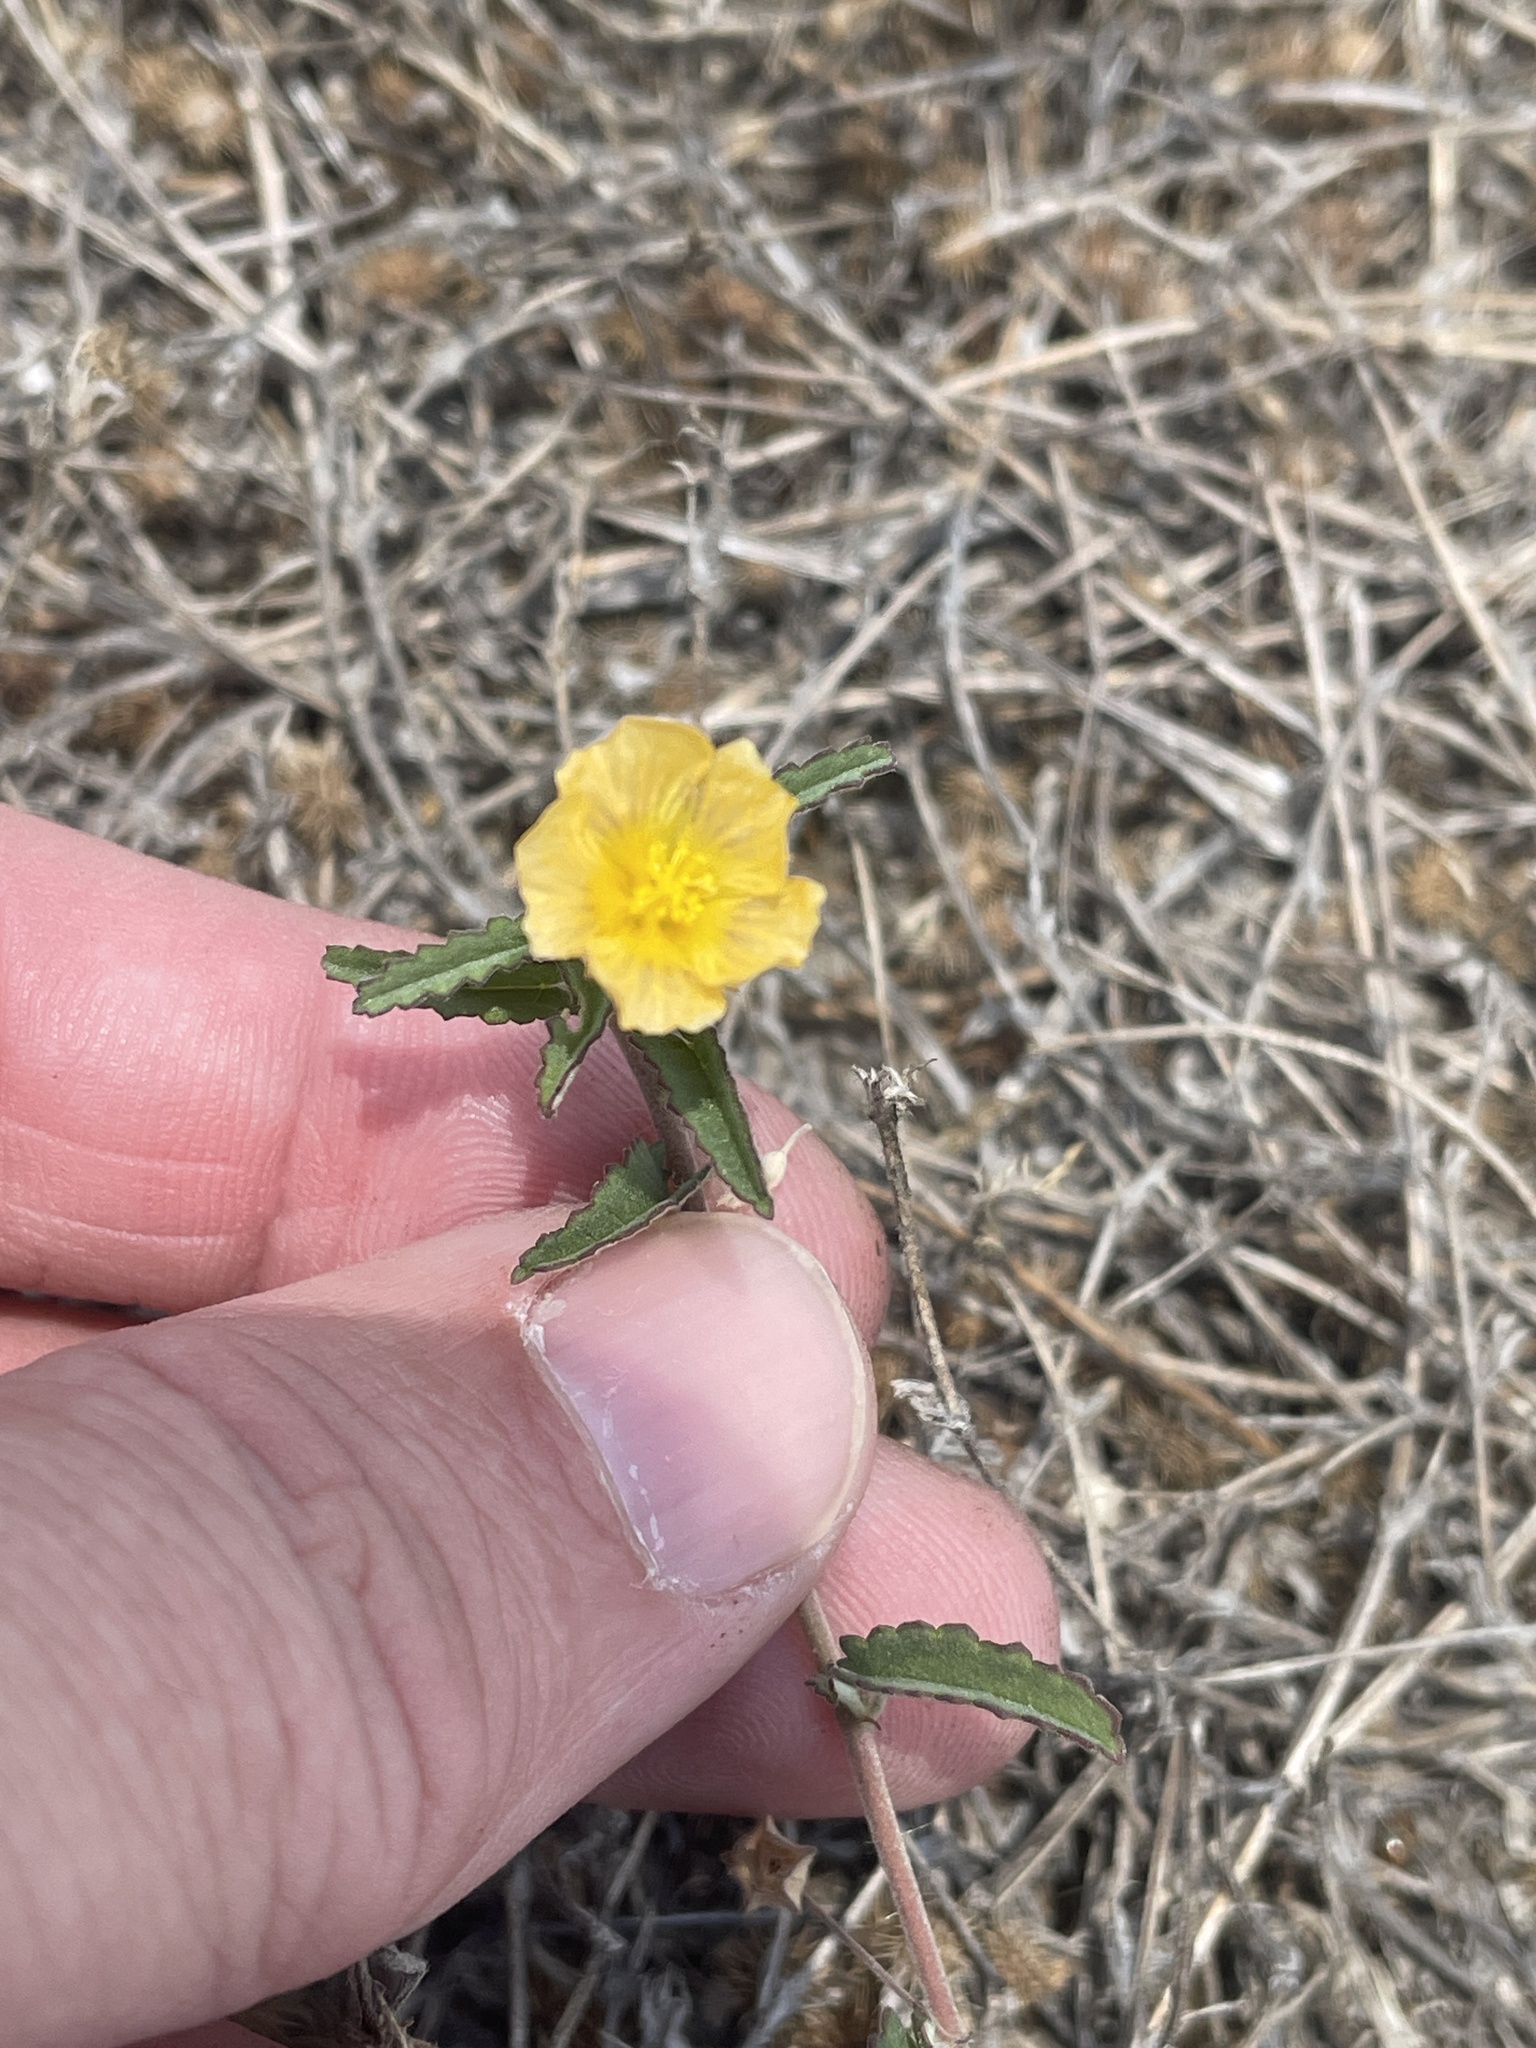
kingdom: Plantae
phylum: Tracheophyta
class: Magnoliopsida
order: Malvales
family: Malvaceae
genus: Sida
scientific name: Sida abutilifolia
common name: Spreading fanpetals
